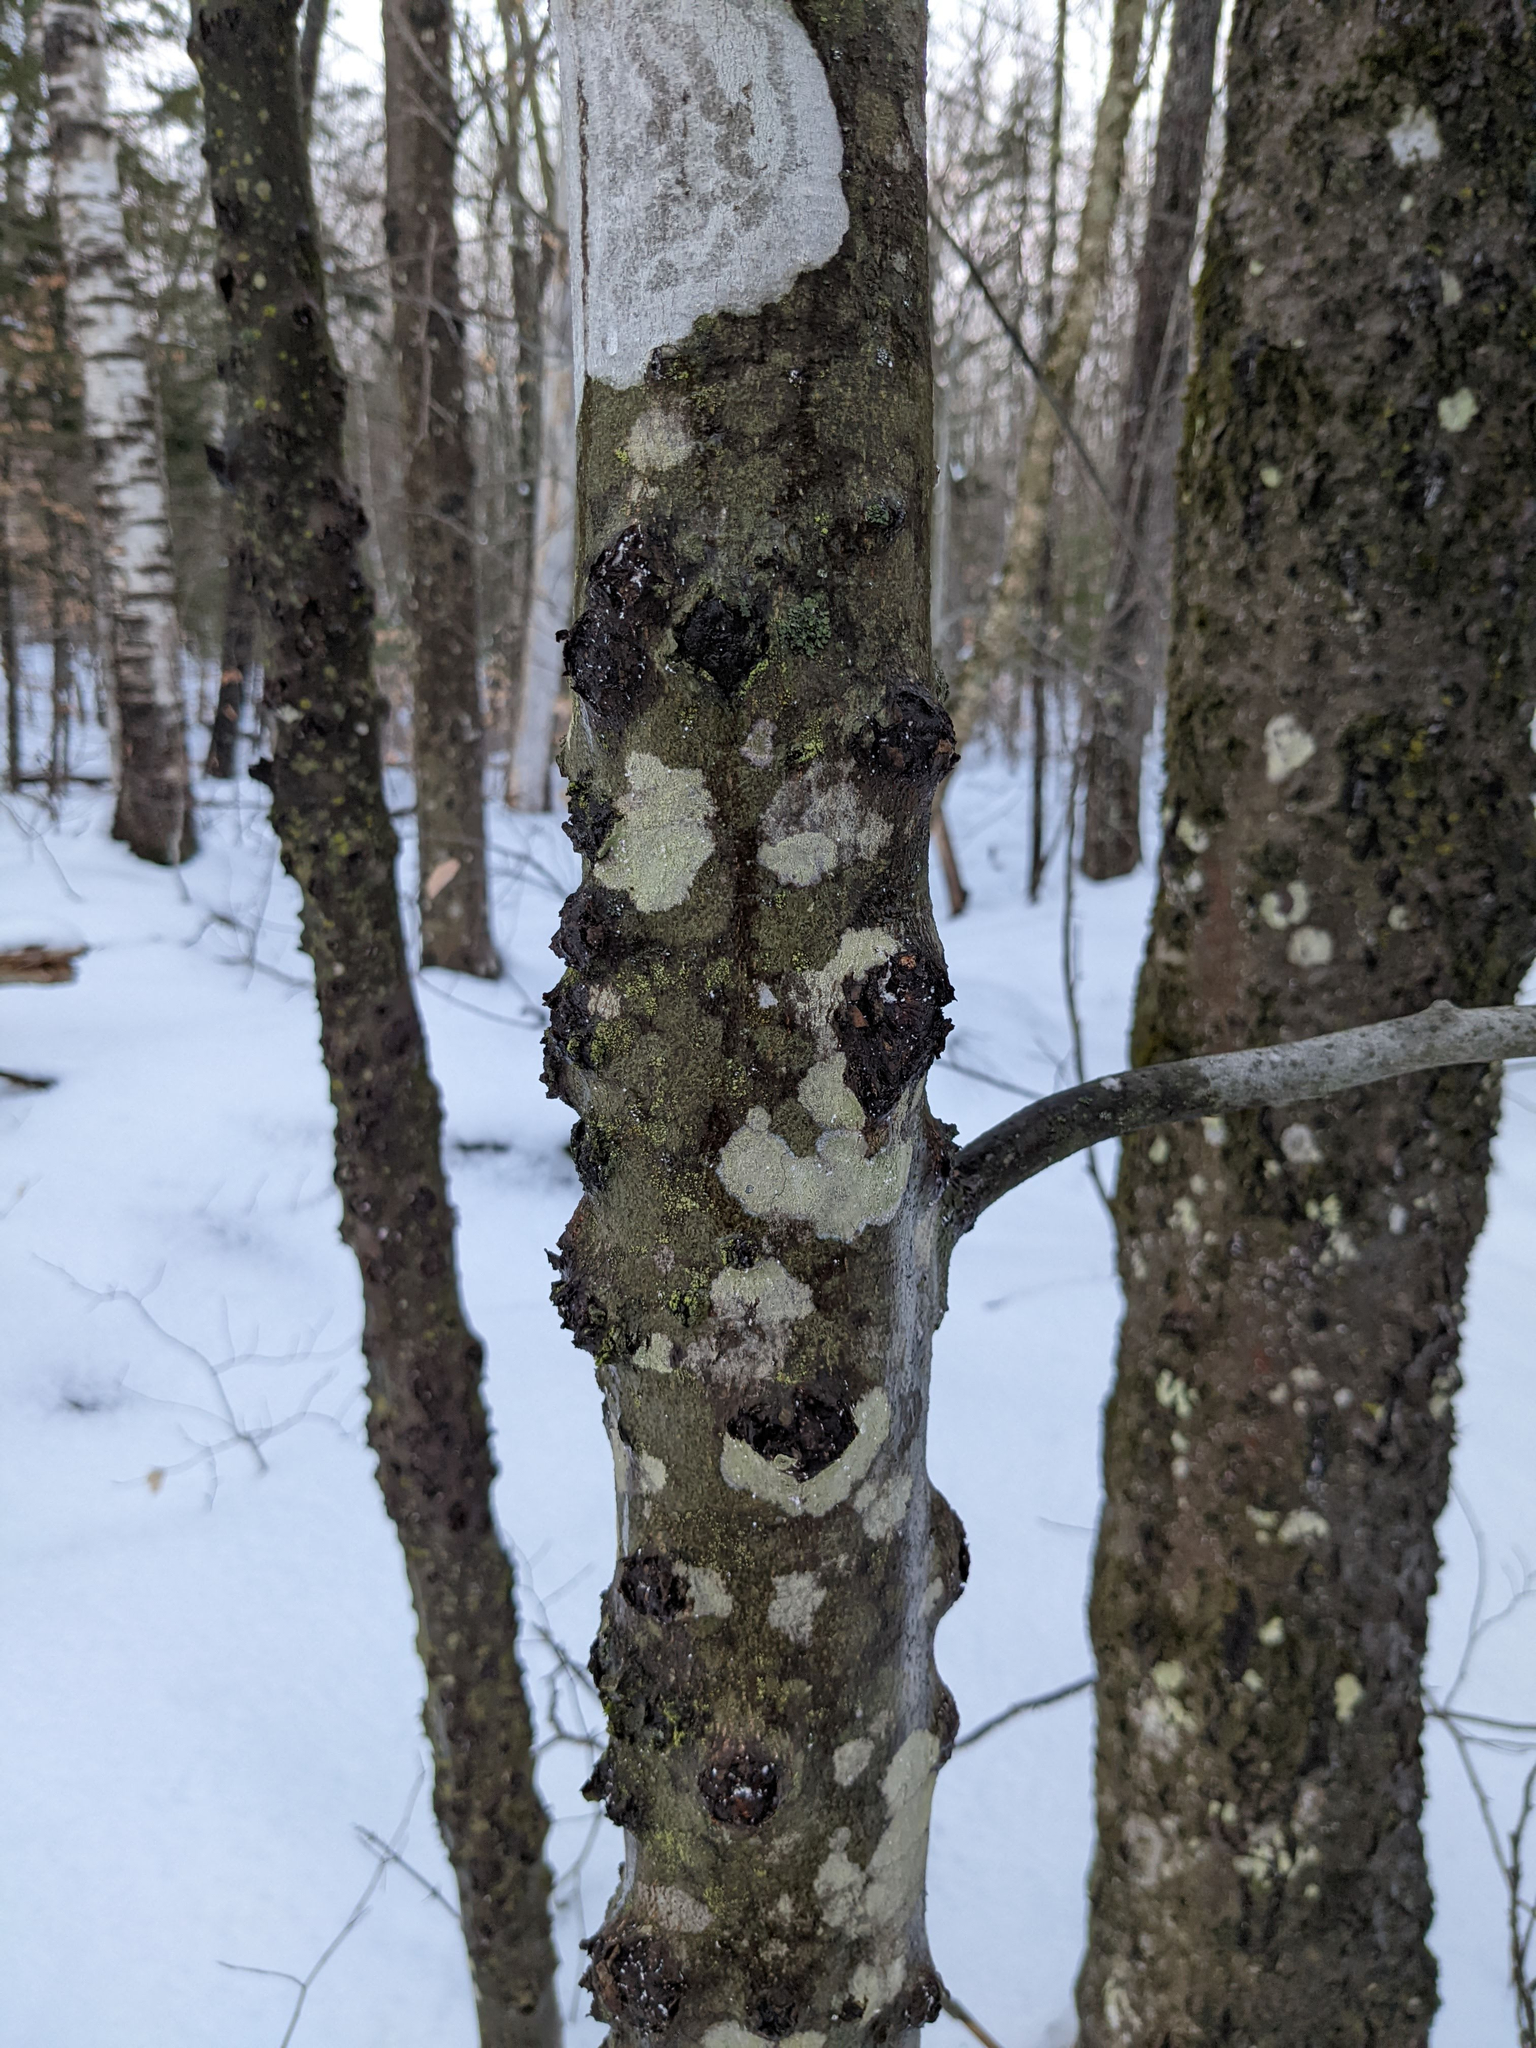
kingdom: Plantae
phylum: Tracheophyta
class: Magnoliopsida
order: Fagales
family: Fagaceae
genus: Fagus
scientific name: Fagus grandifolia
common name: American beech
